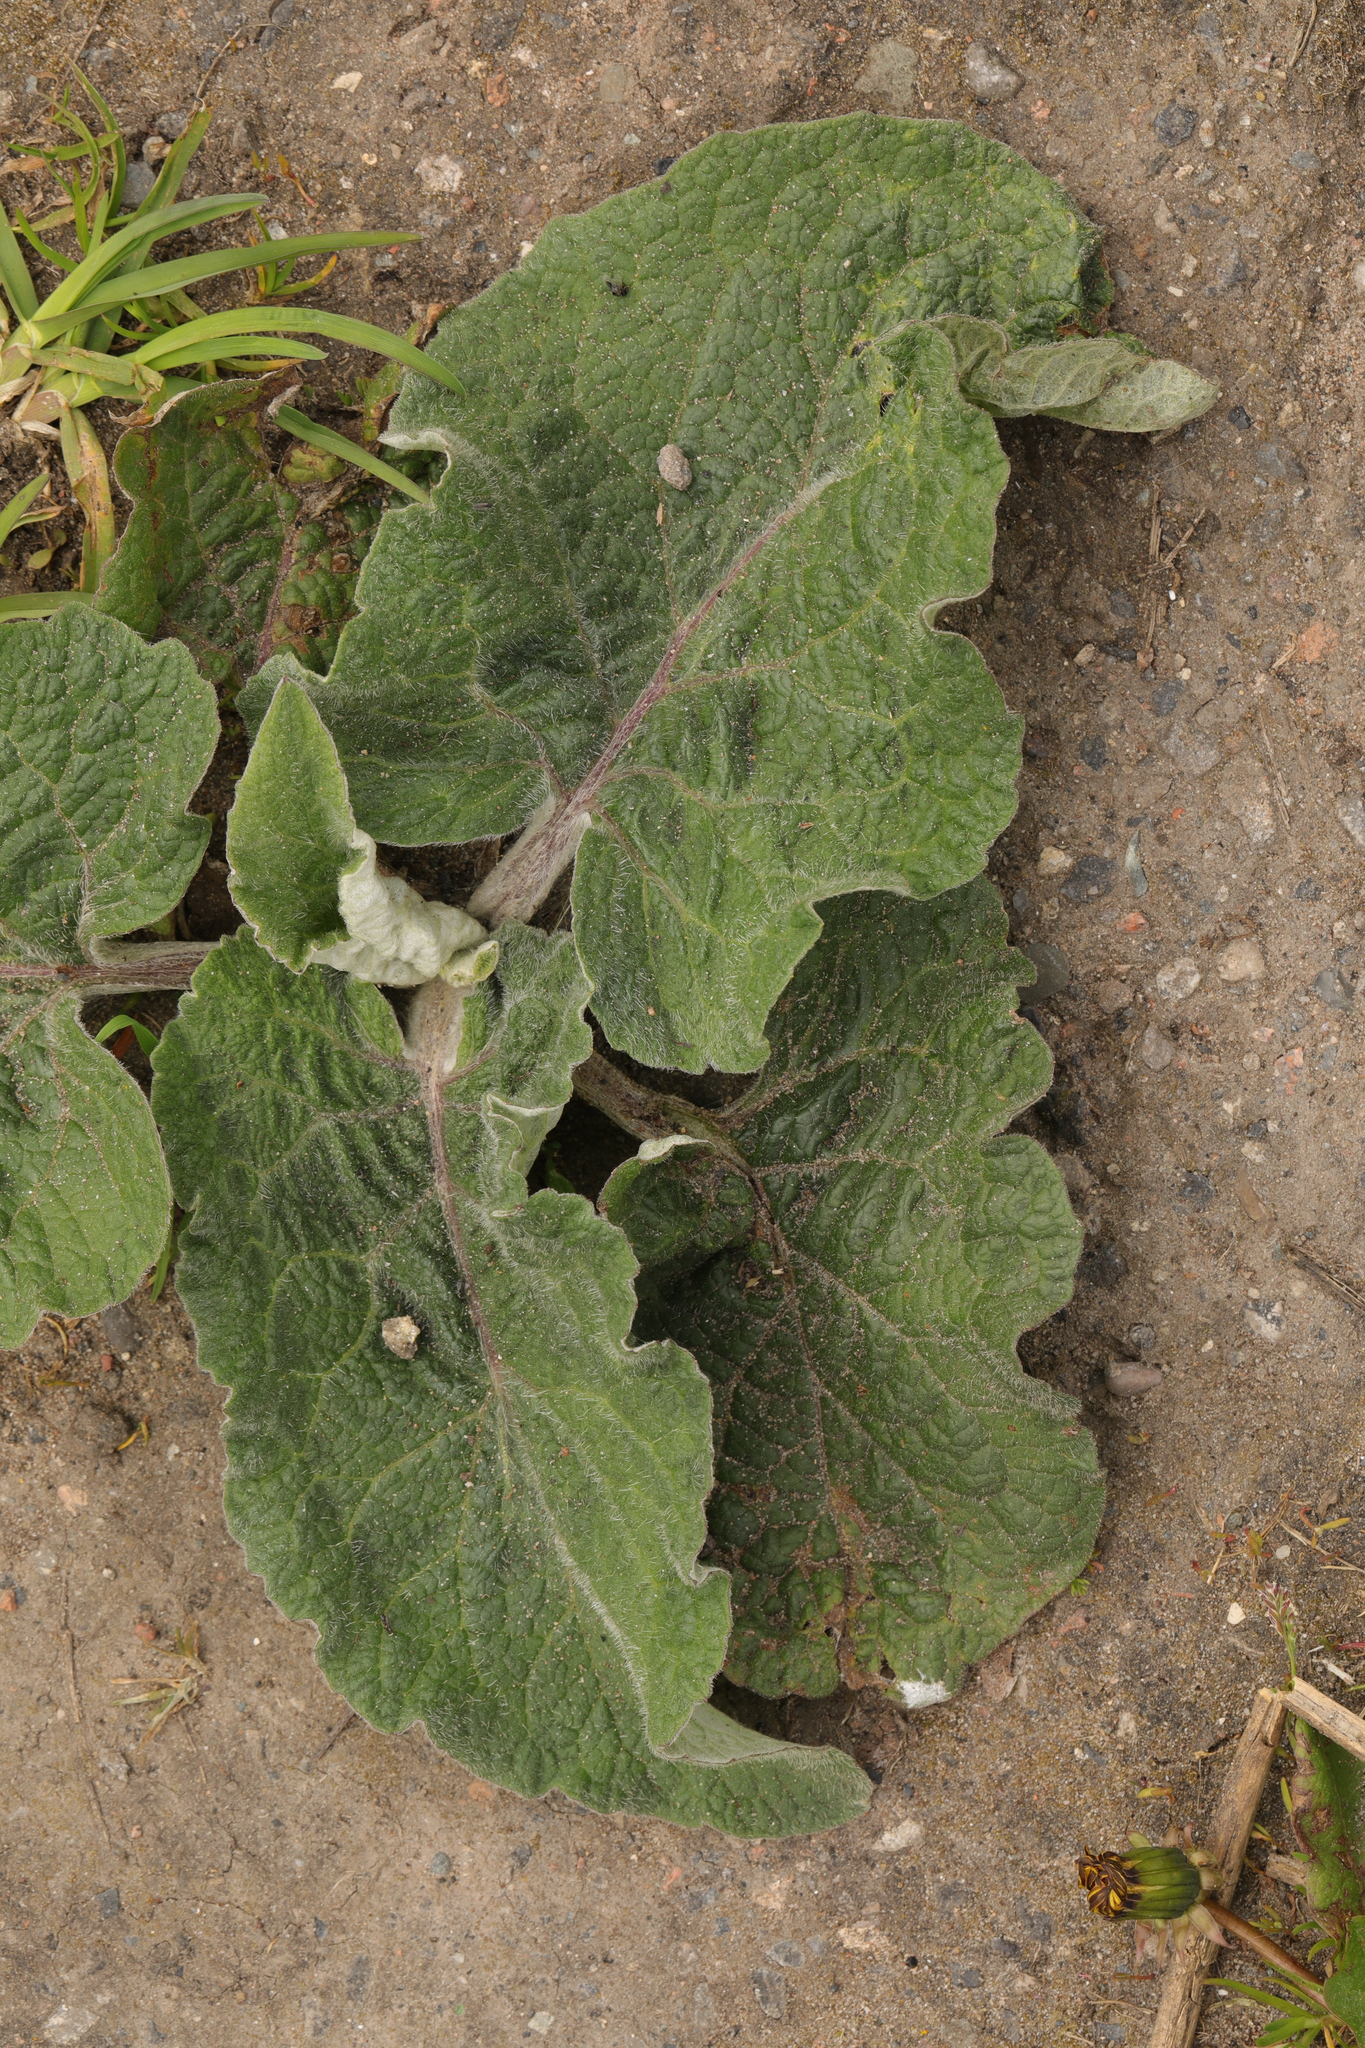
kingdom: Plantae
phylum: Tracheophyta
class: Magnoliopsida
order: Asterales
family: Asteraceae
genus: Arctium
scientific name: Arctium minus
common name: Lesser burdock
